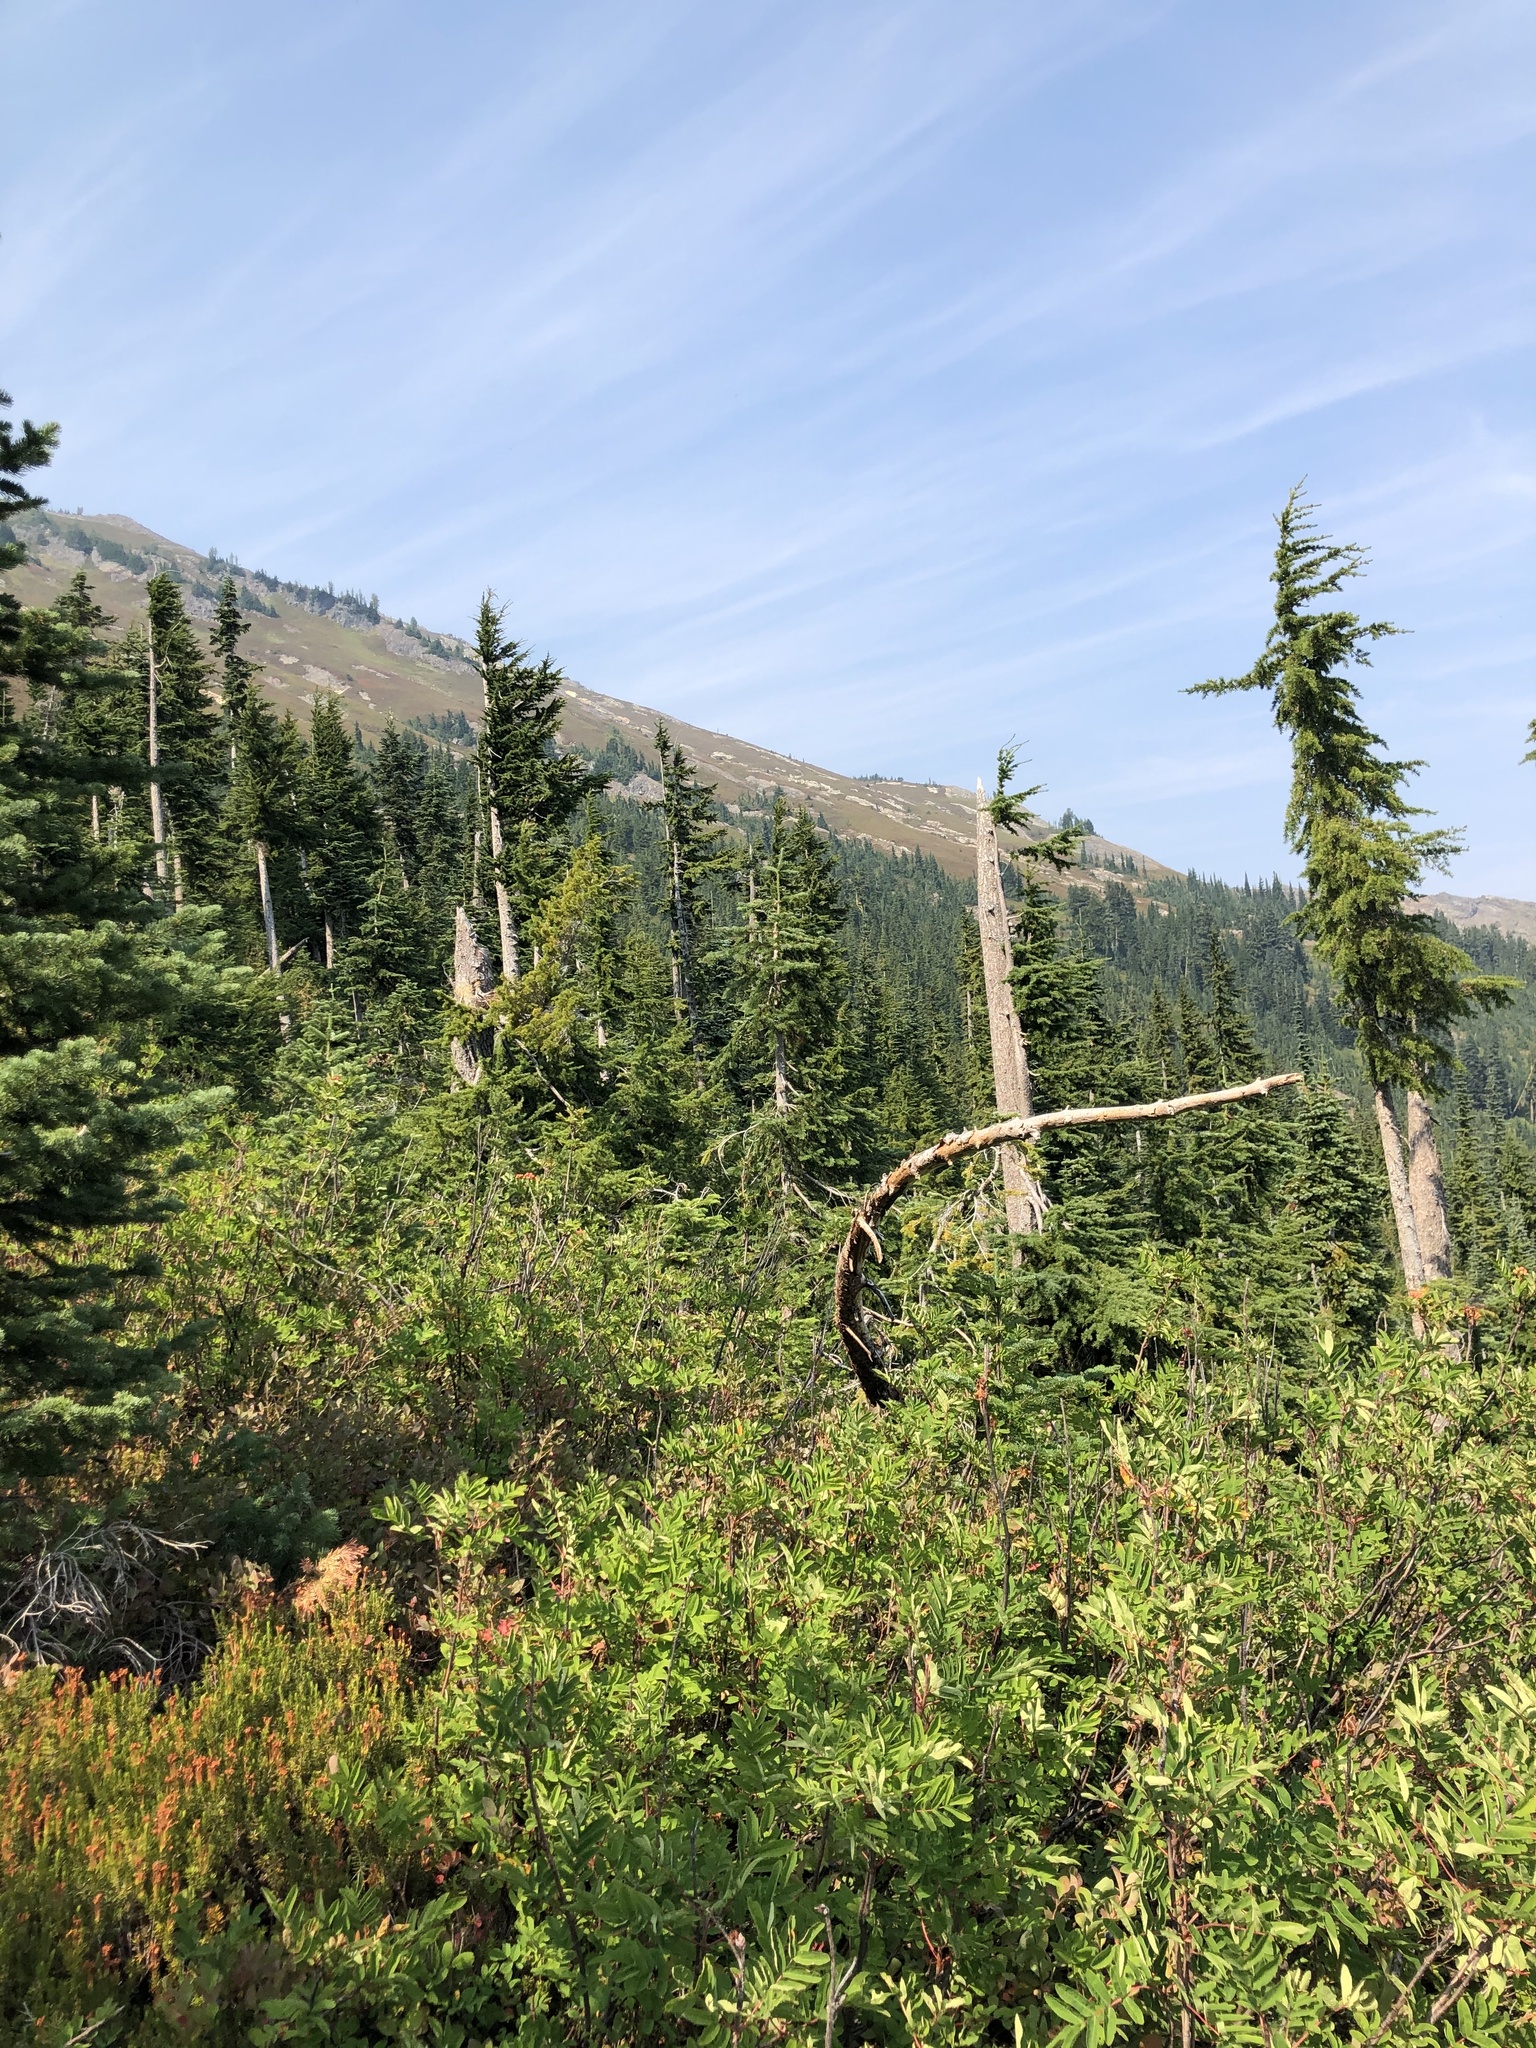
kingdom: Plantae
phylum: Tracheophyta
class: Pinopsida
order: Pinales
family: Pinaceae
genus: Tsuga
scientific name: Tsuga mertensiana
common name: Mountain hemlock
